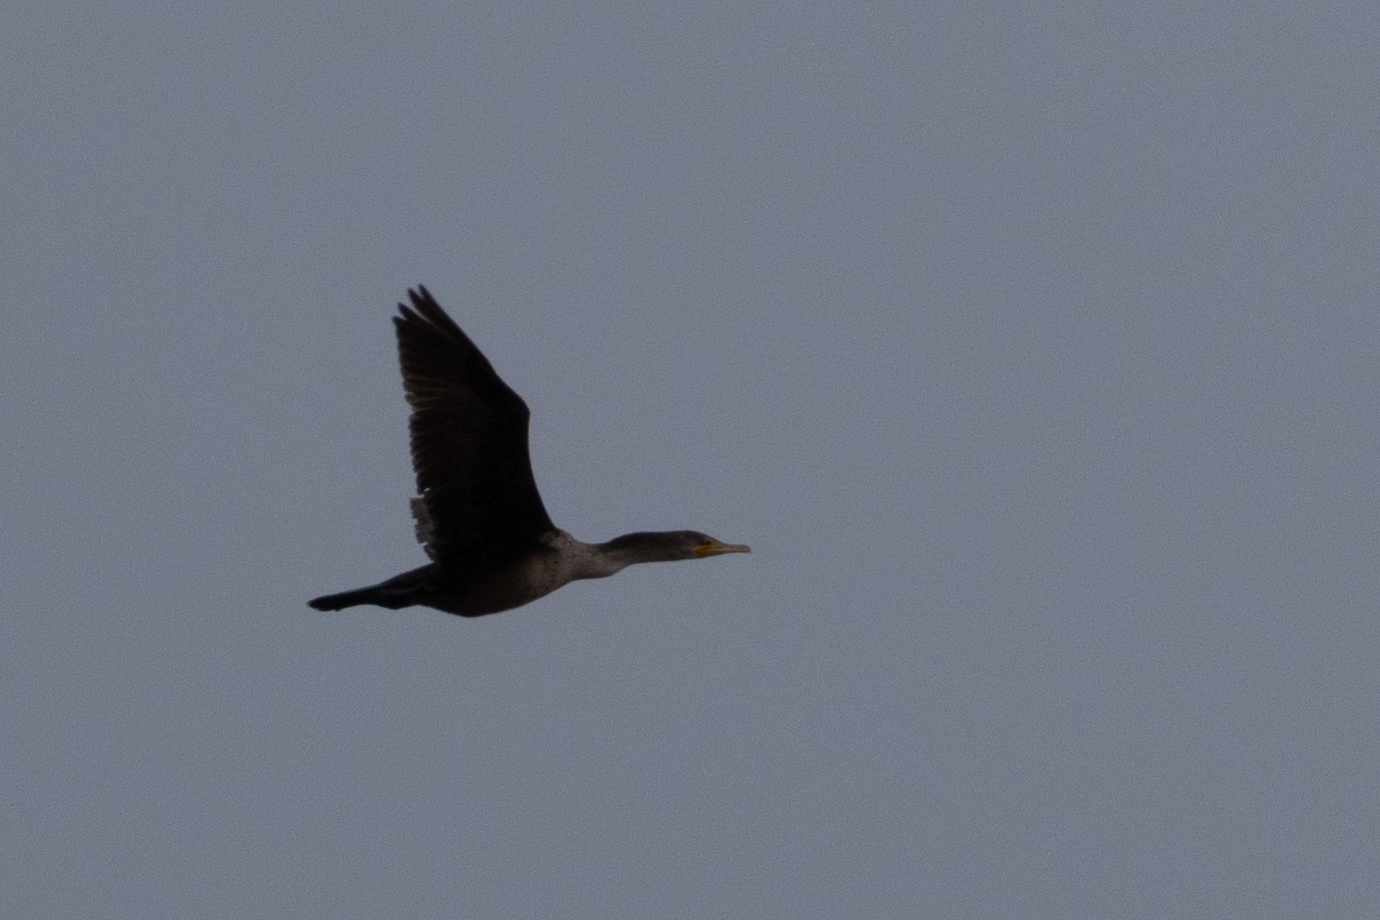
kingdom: Animalia
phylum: Chordata
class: Aves
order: Suliformes
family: Phalacrocoracidae
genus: Phalacrocorax
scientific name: Phalacrocorax auritus
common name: Double-crested cormorant
